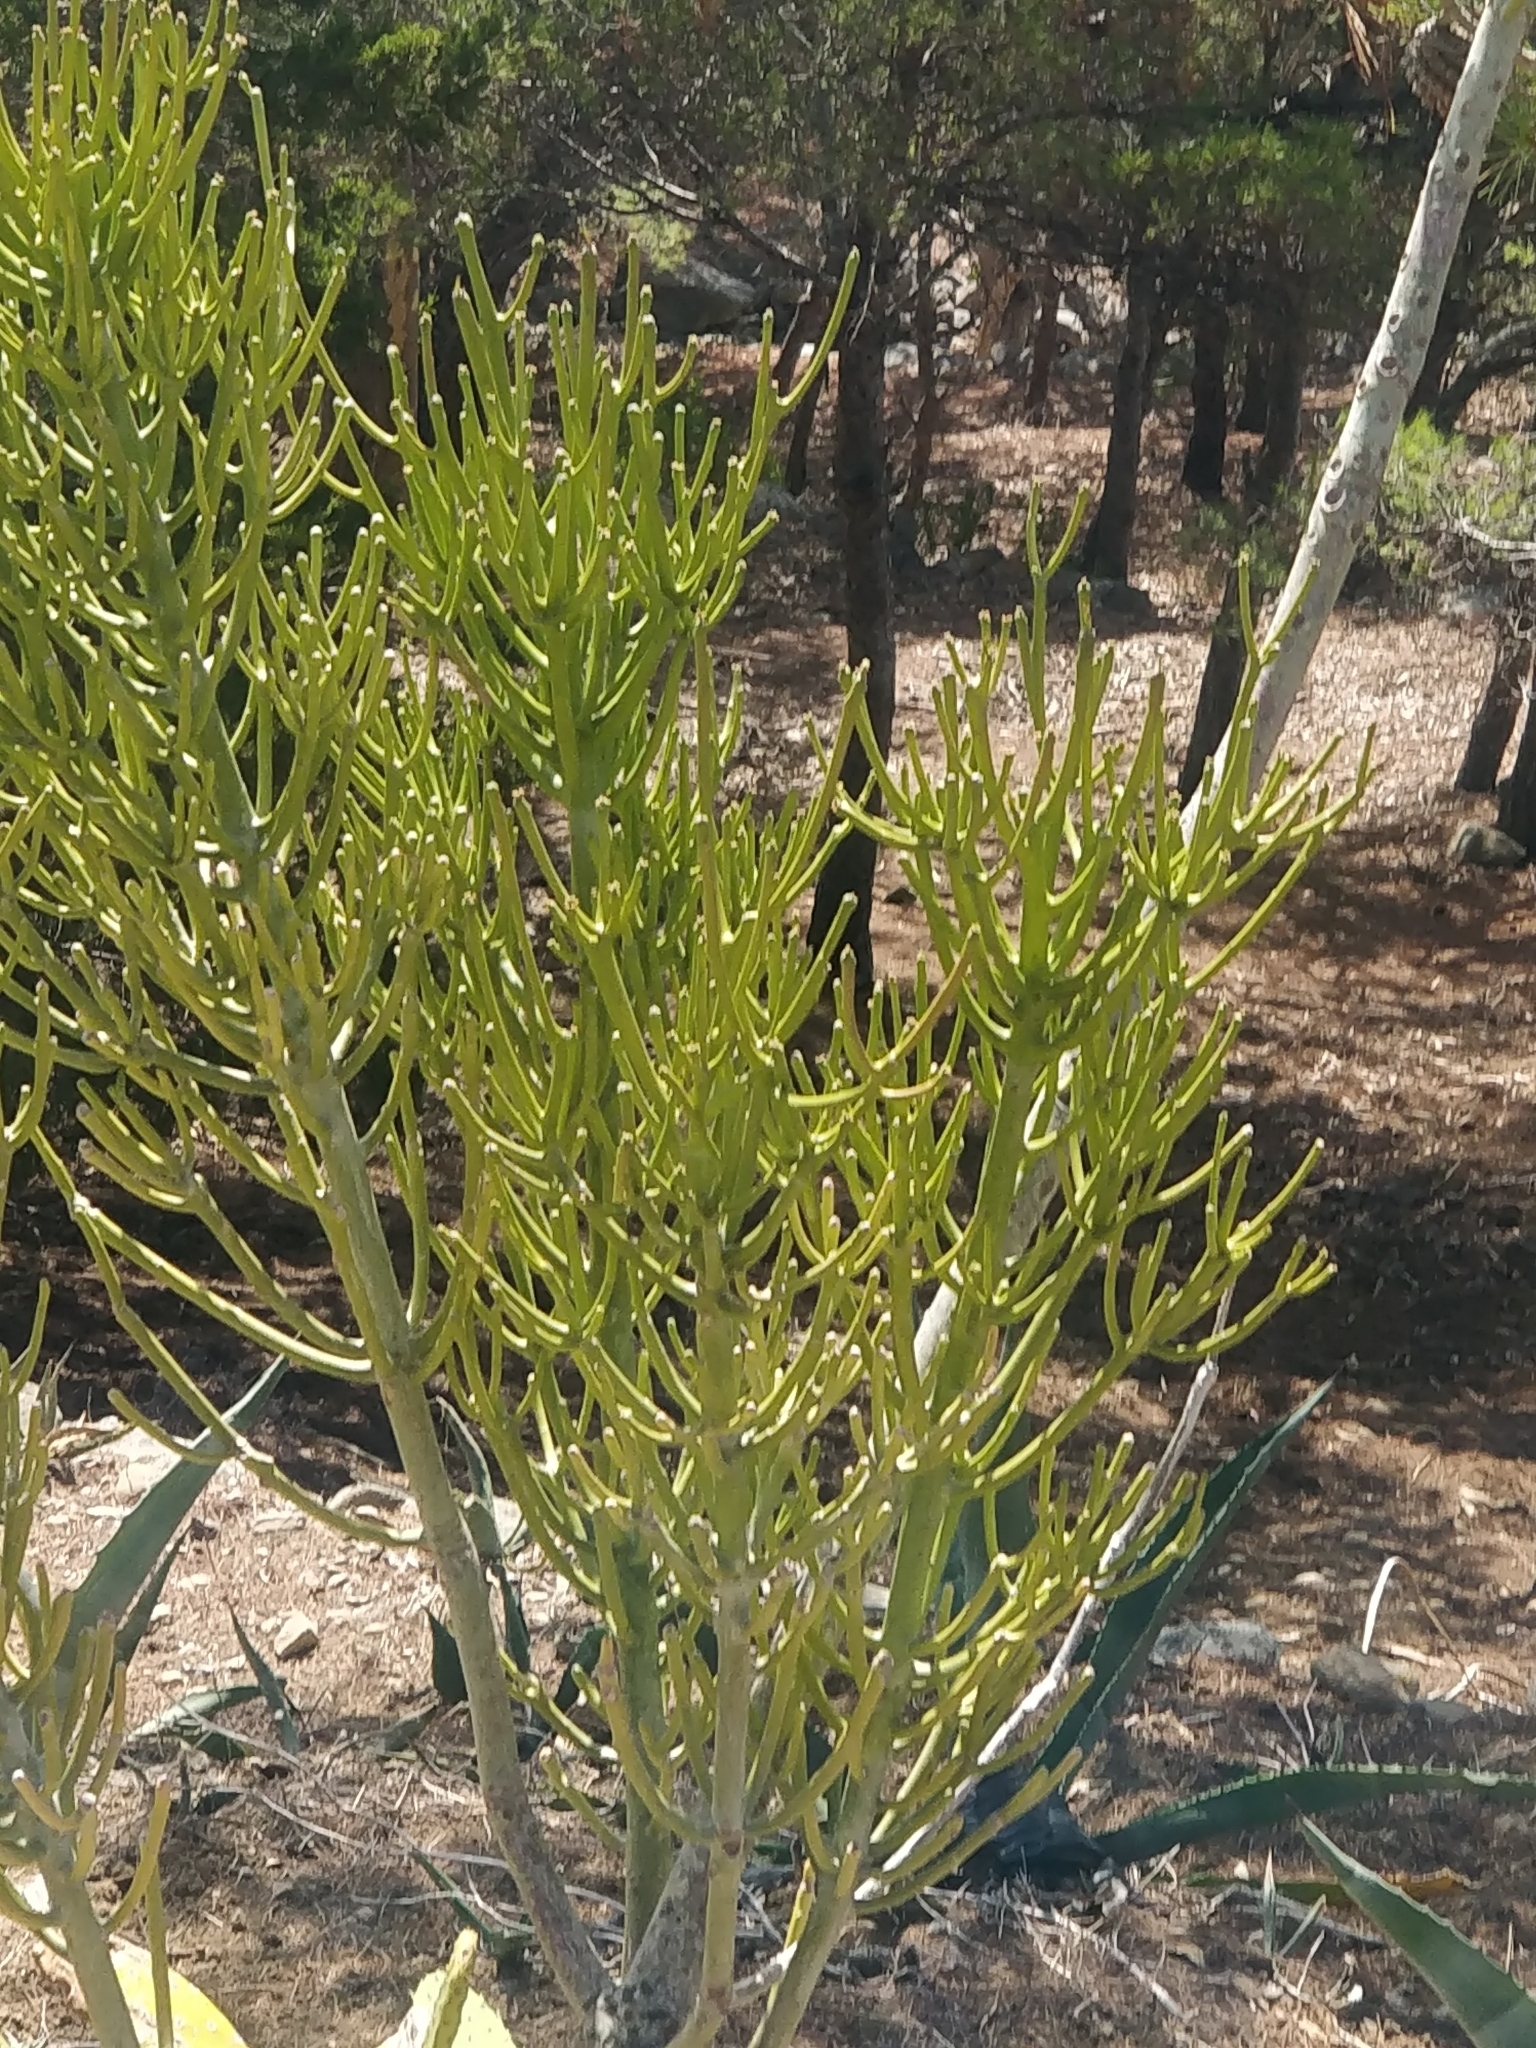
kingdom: Plantae
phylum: Tracheophyta
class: Magnoliopsida
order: Malpighiales
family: Euphorbiaceae
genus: Euphorbia
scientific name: Euphorbia tirucalli
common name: Indiantree spurge
